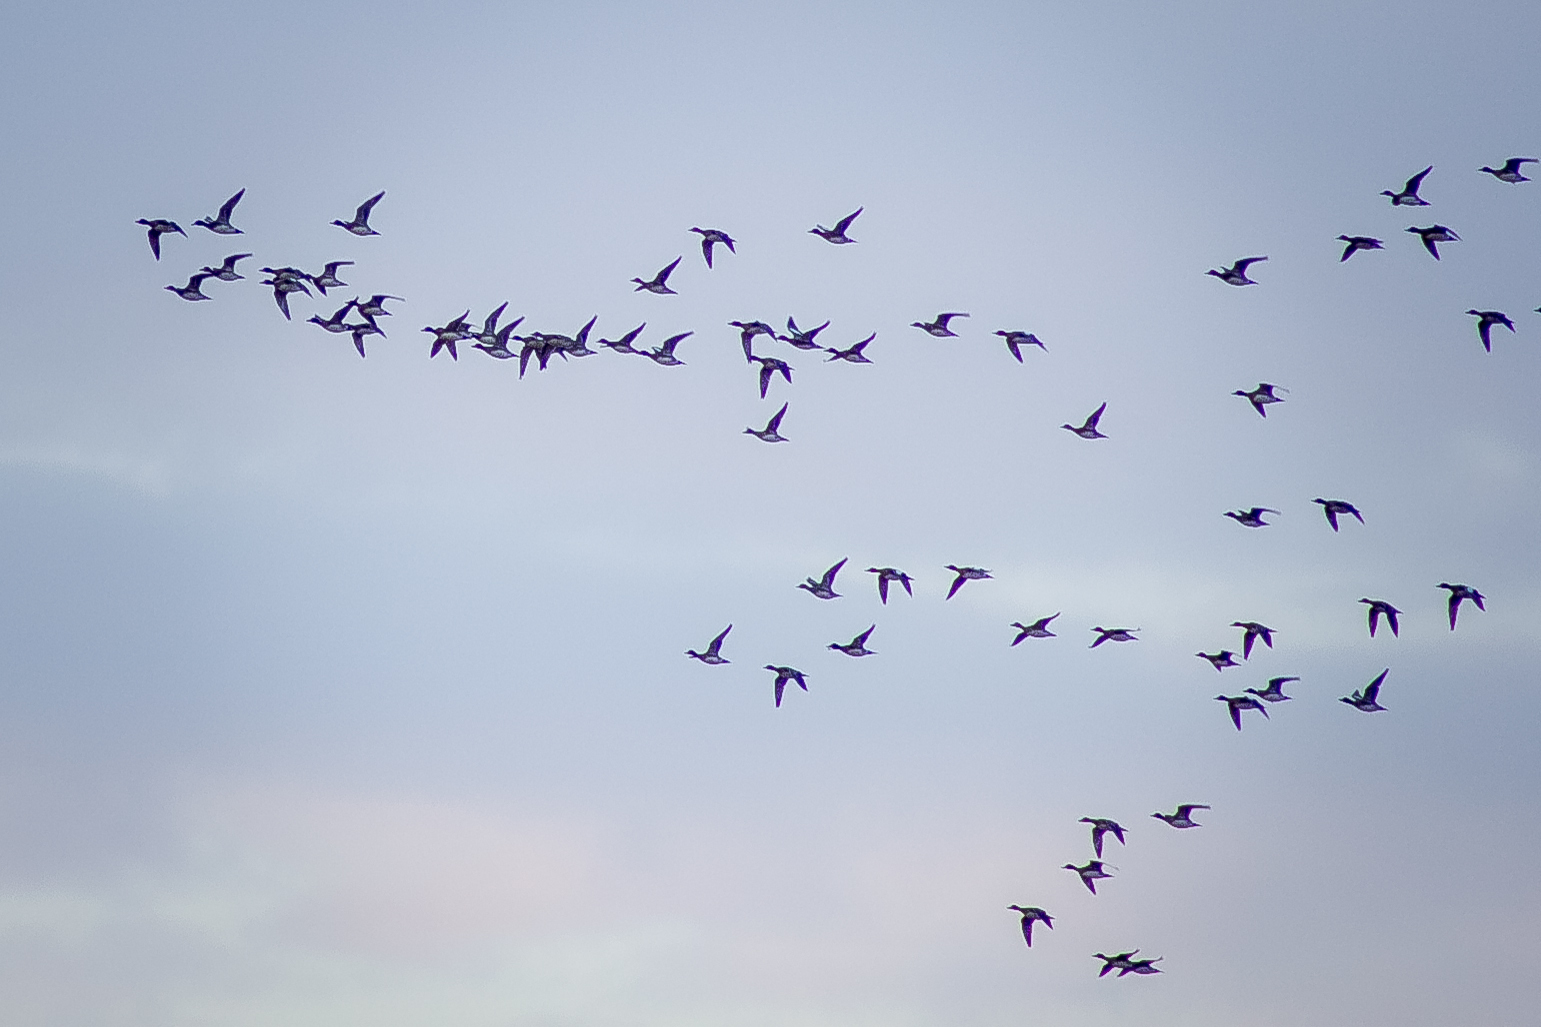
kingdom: Animalia
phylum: Chordata
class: Aves
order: Anseriformes
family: Anatidae
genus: Mareca
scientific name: Mareca penelope
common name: Eurasian wigeon
